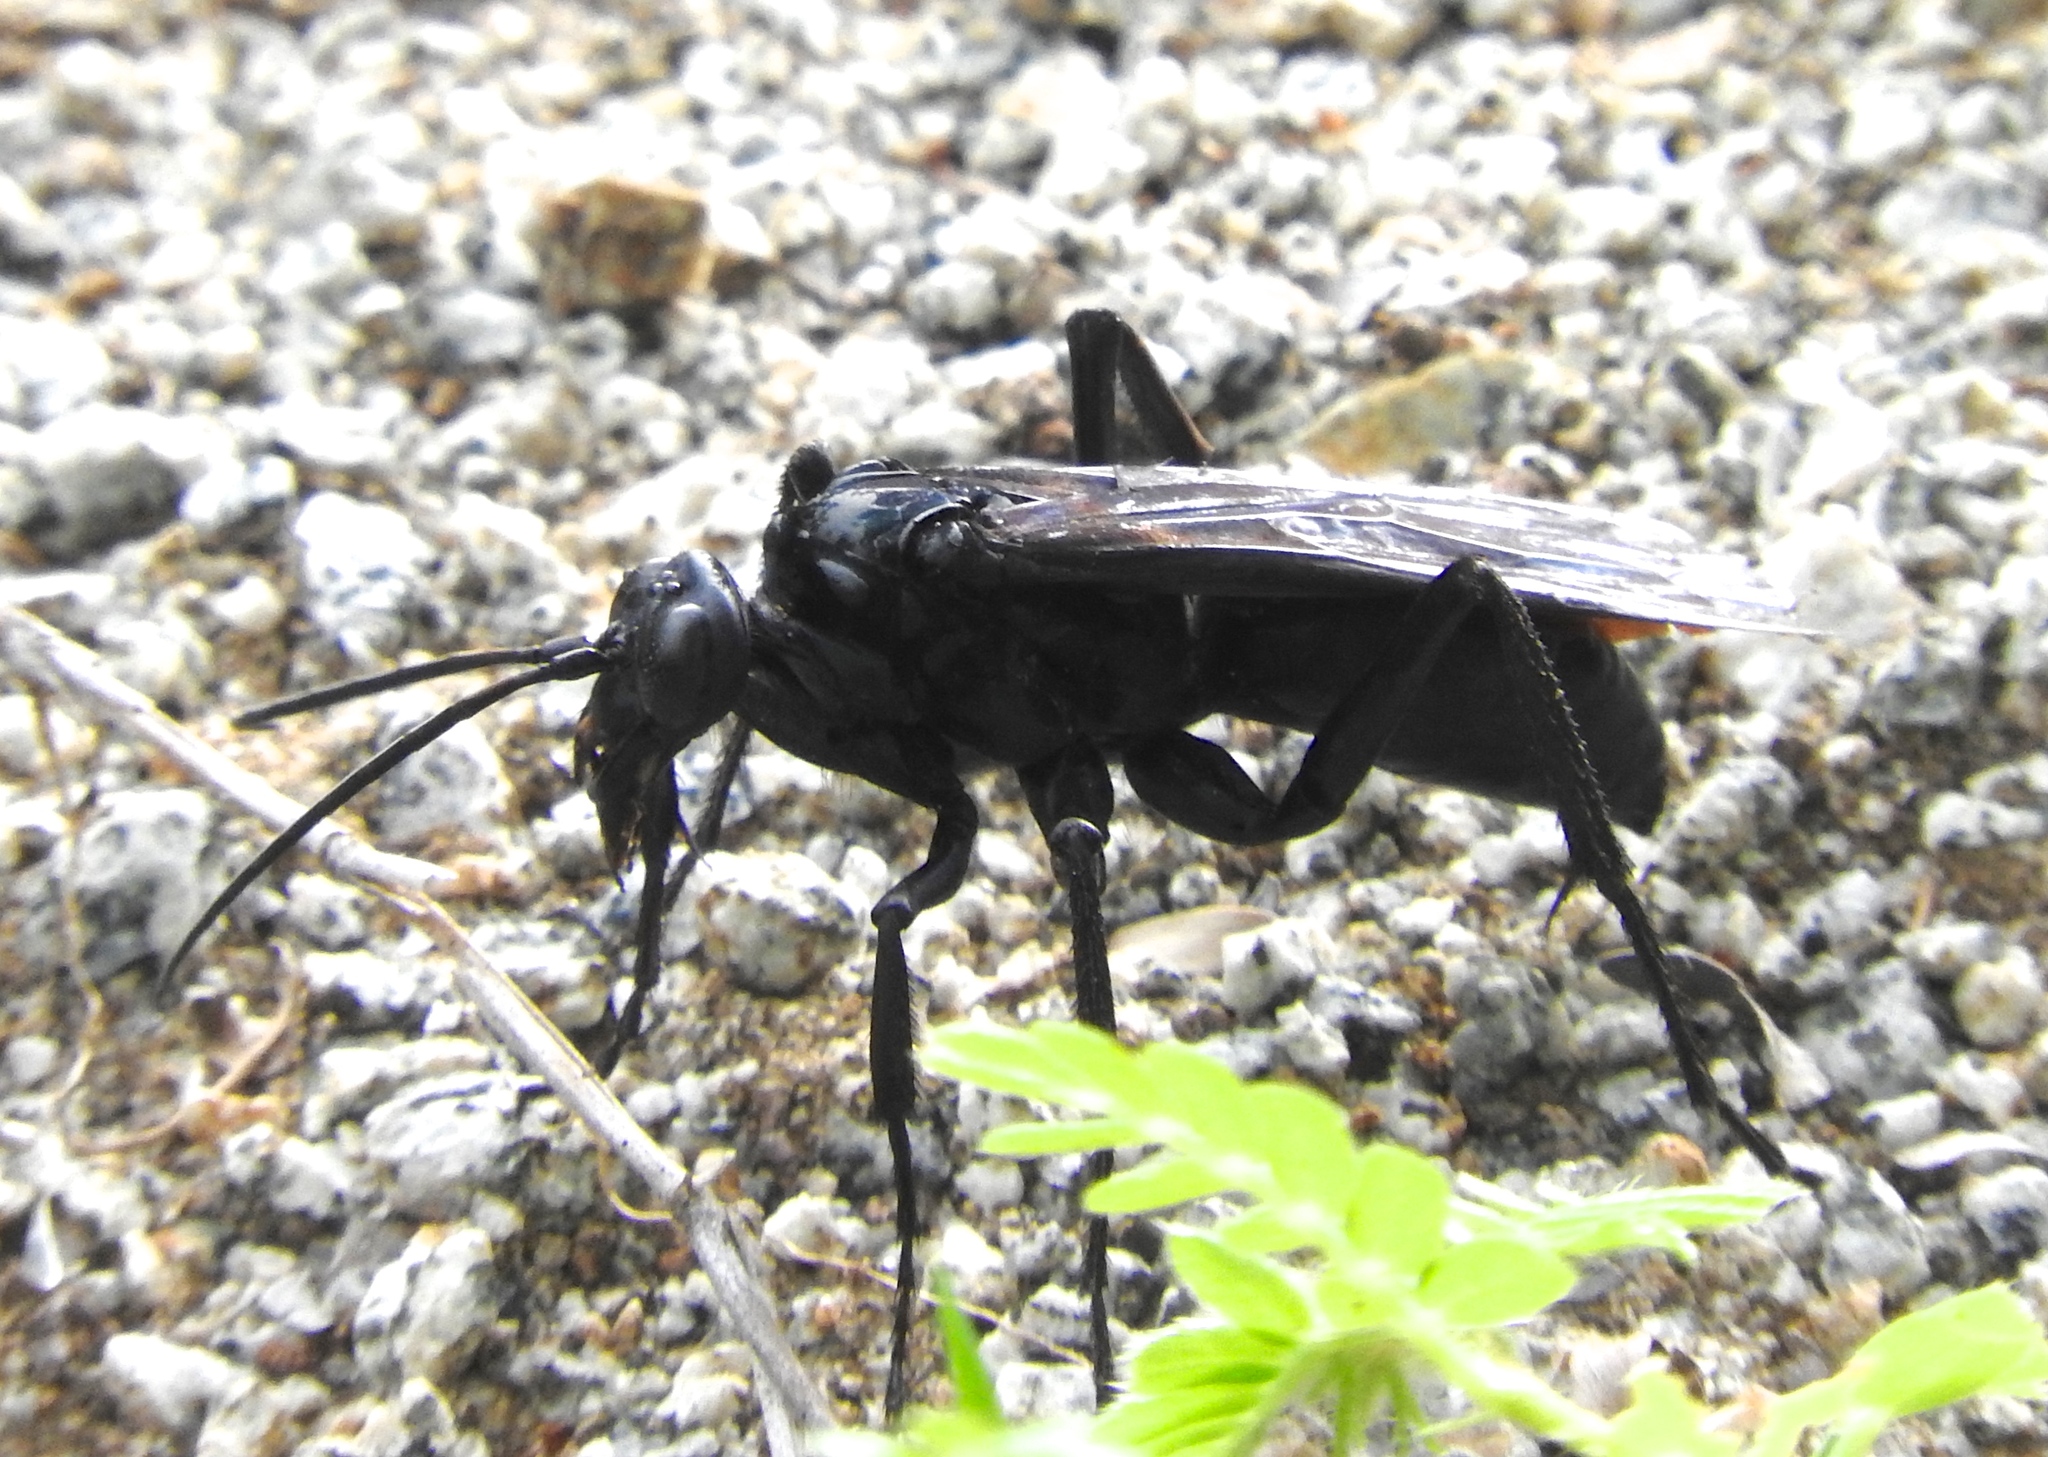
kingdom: Animalia
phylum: Arthropoda
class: Insecta
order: Hymenoptera
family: Pompilidae
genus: Pepsis
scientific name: Pepsis mexicana
